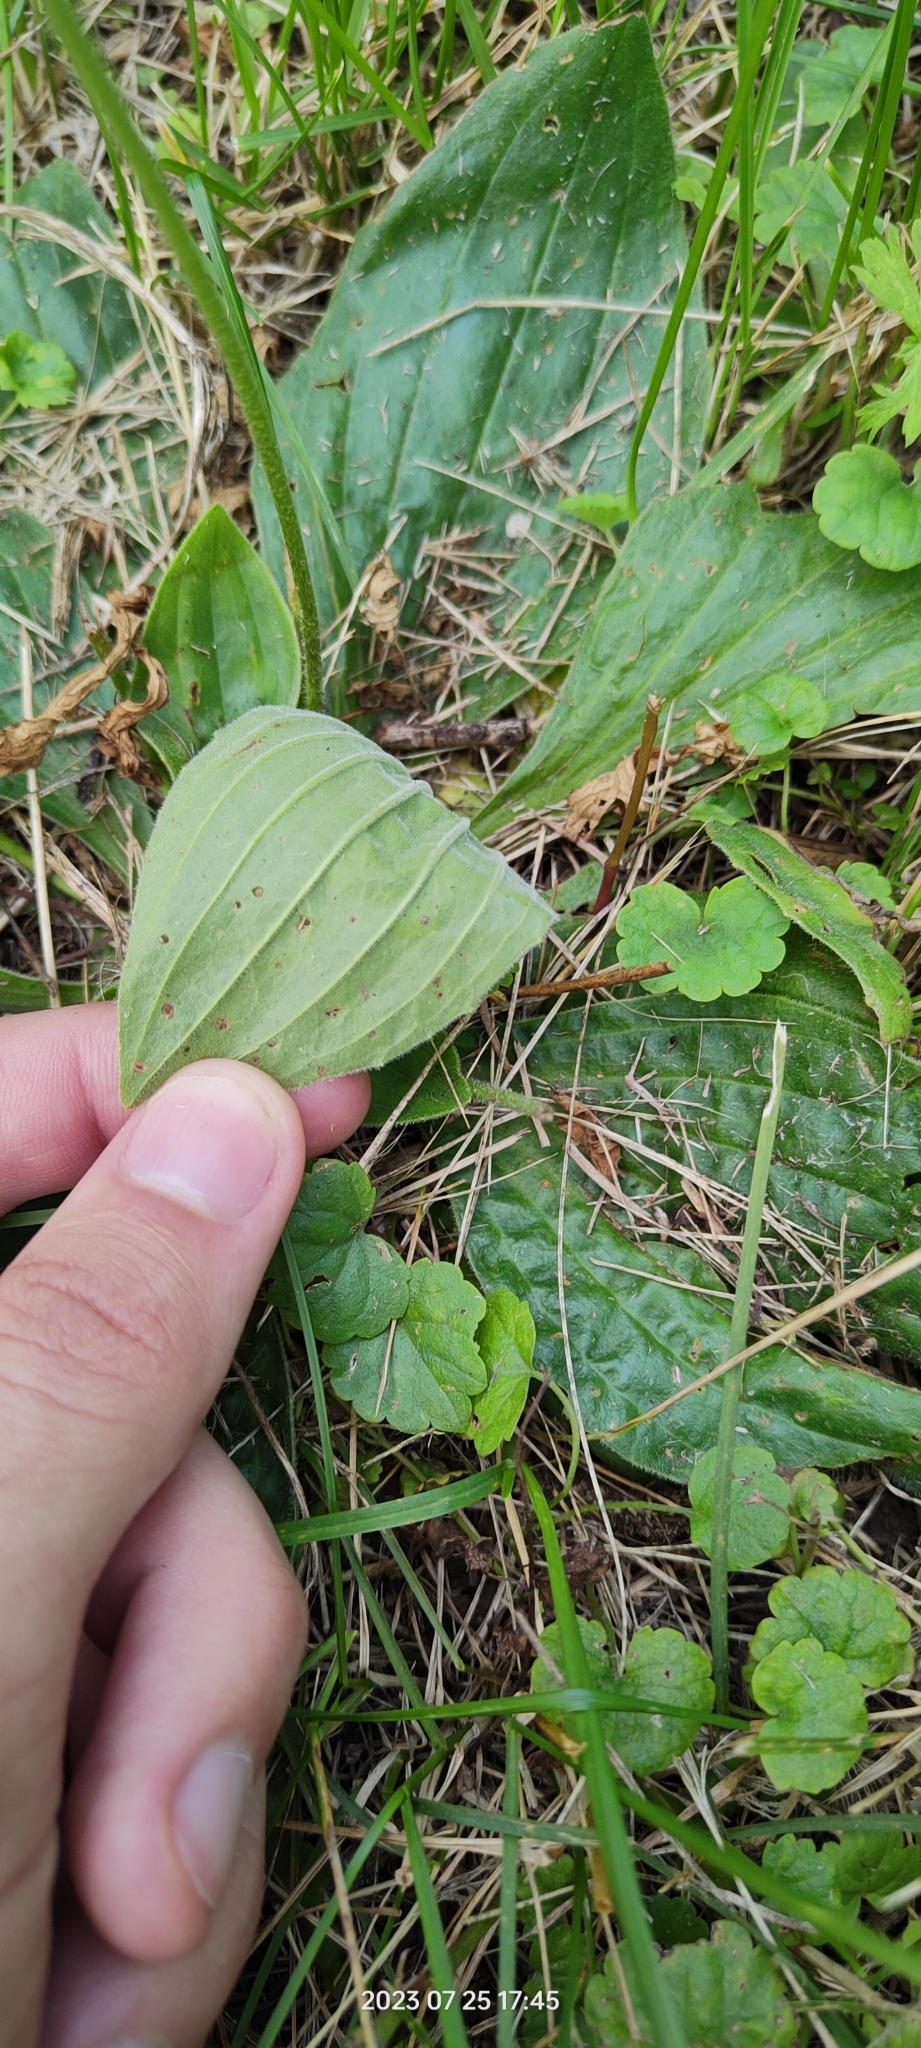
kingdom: Plantae
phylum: Tracheophyta
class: Magnoliopsida
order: Lamiales
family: Plantaginaceae
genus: Plantago
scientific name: Plantago media
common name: Hoary plantain
